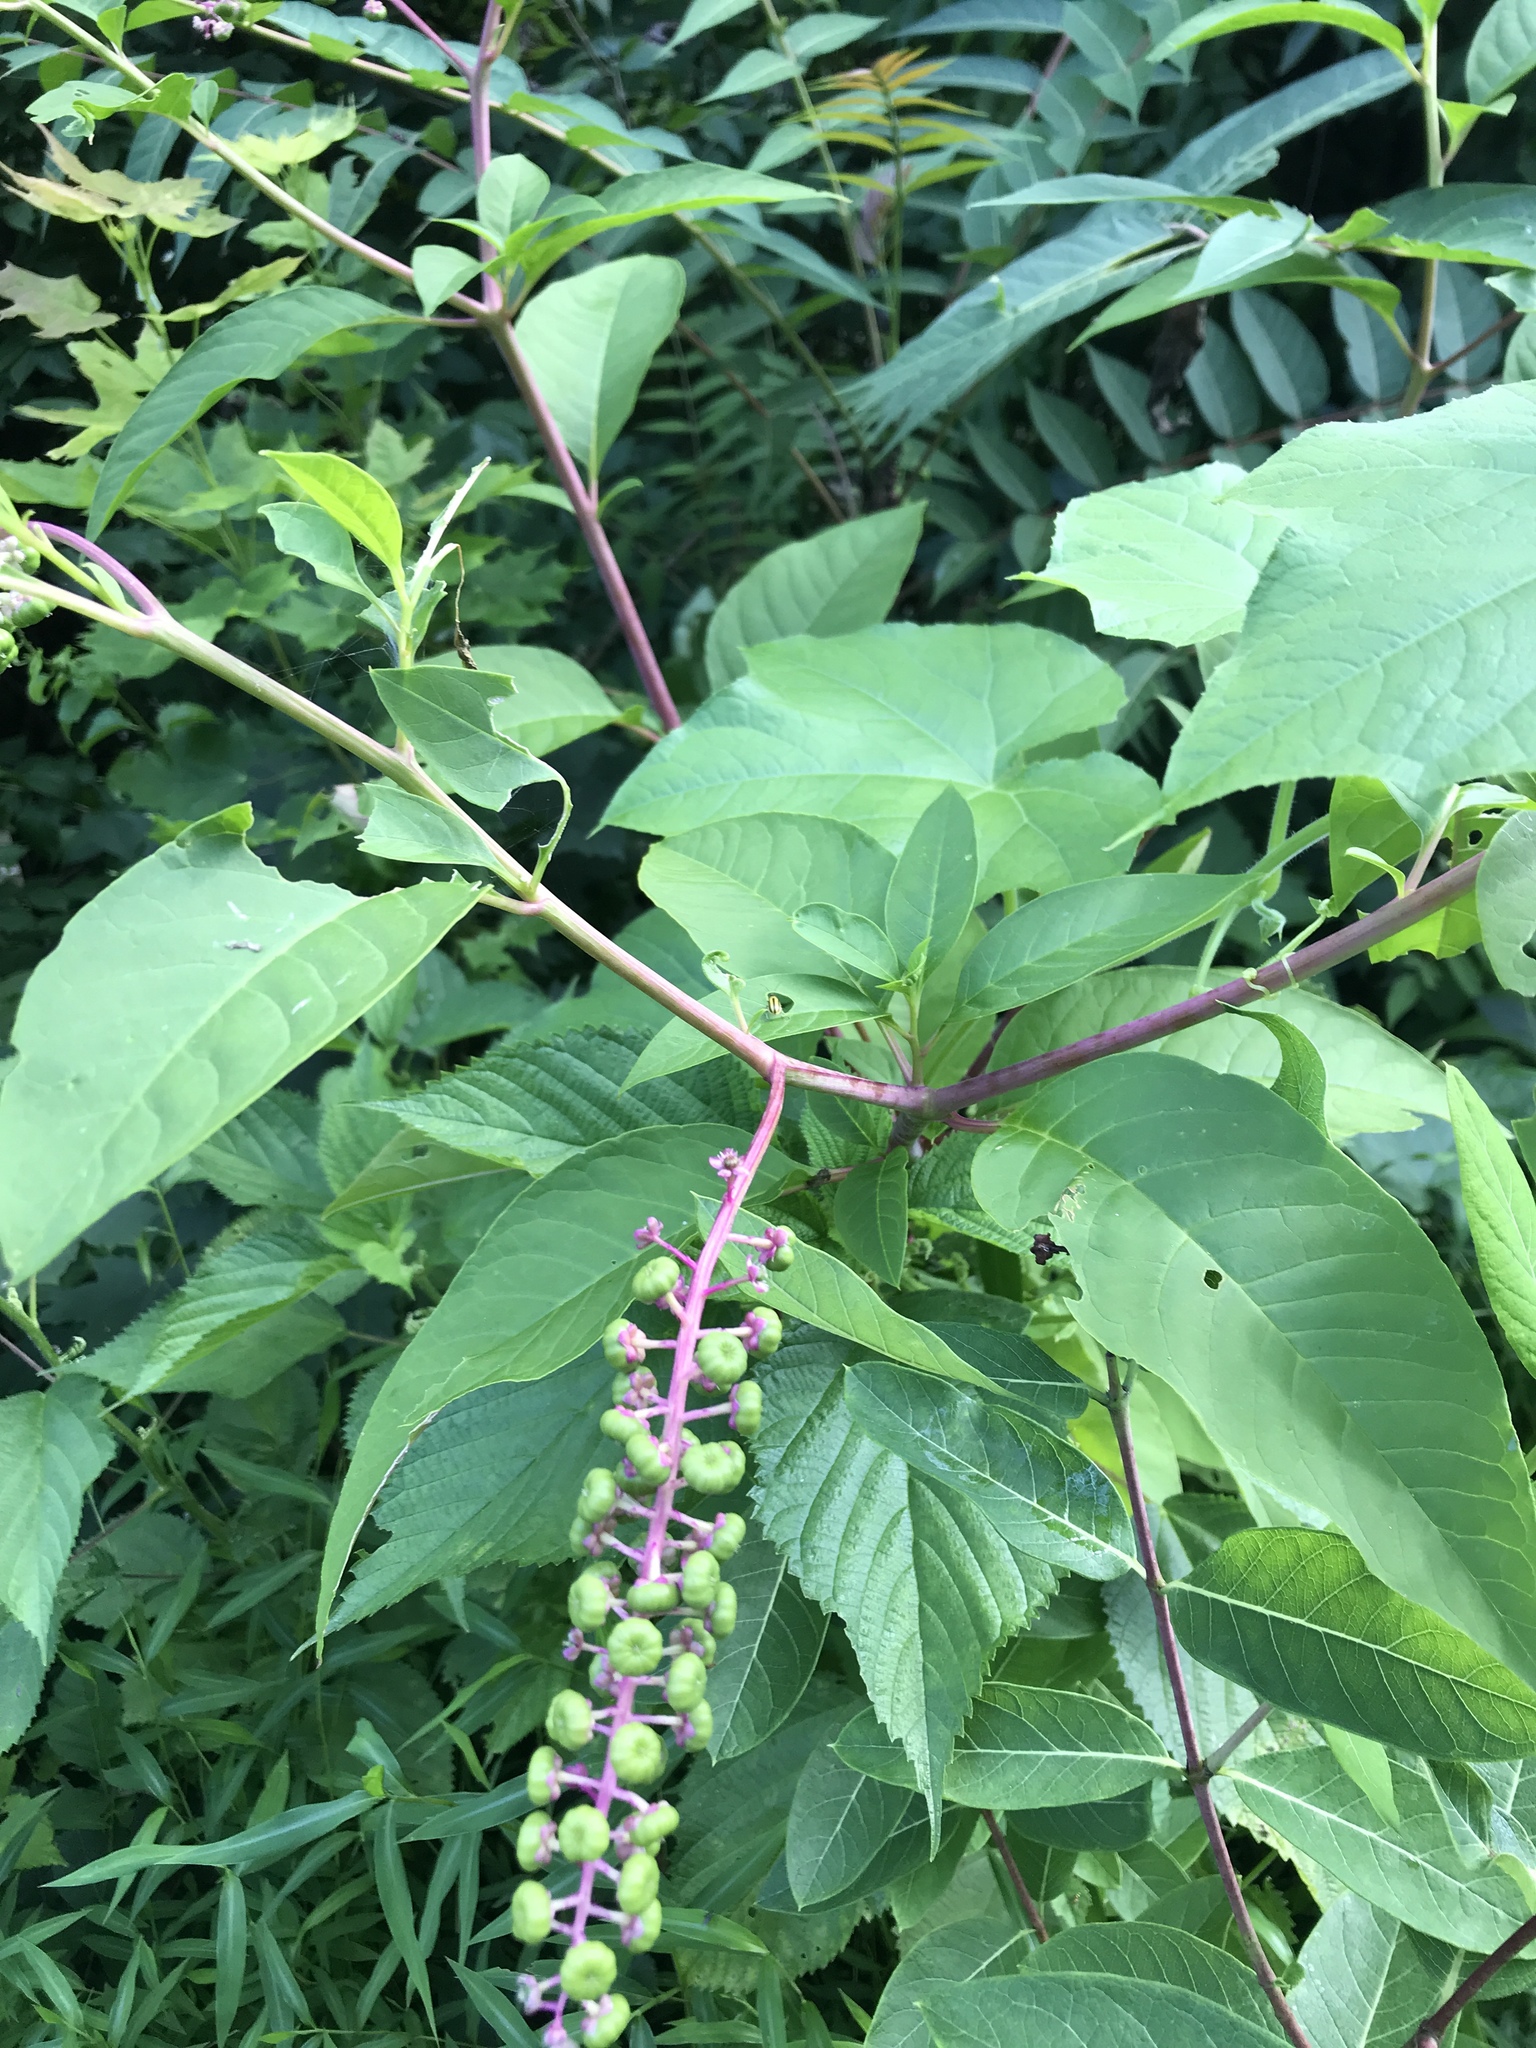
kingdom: Plantae
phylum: Tracheophyta
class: Magnoliopsida
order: Caryophyllales
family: Phytolaccaceae
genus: Phytolacca
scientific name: Phytolacca americana
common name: American pokeweed
